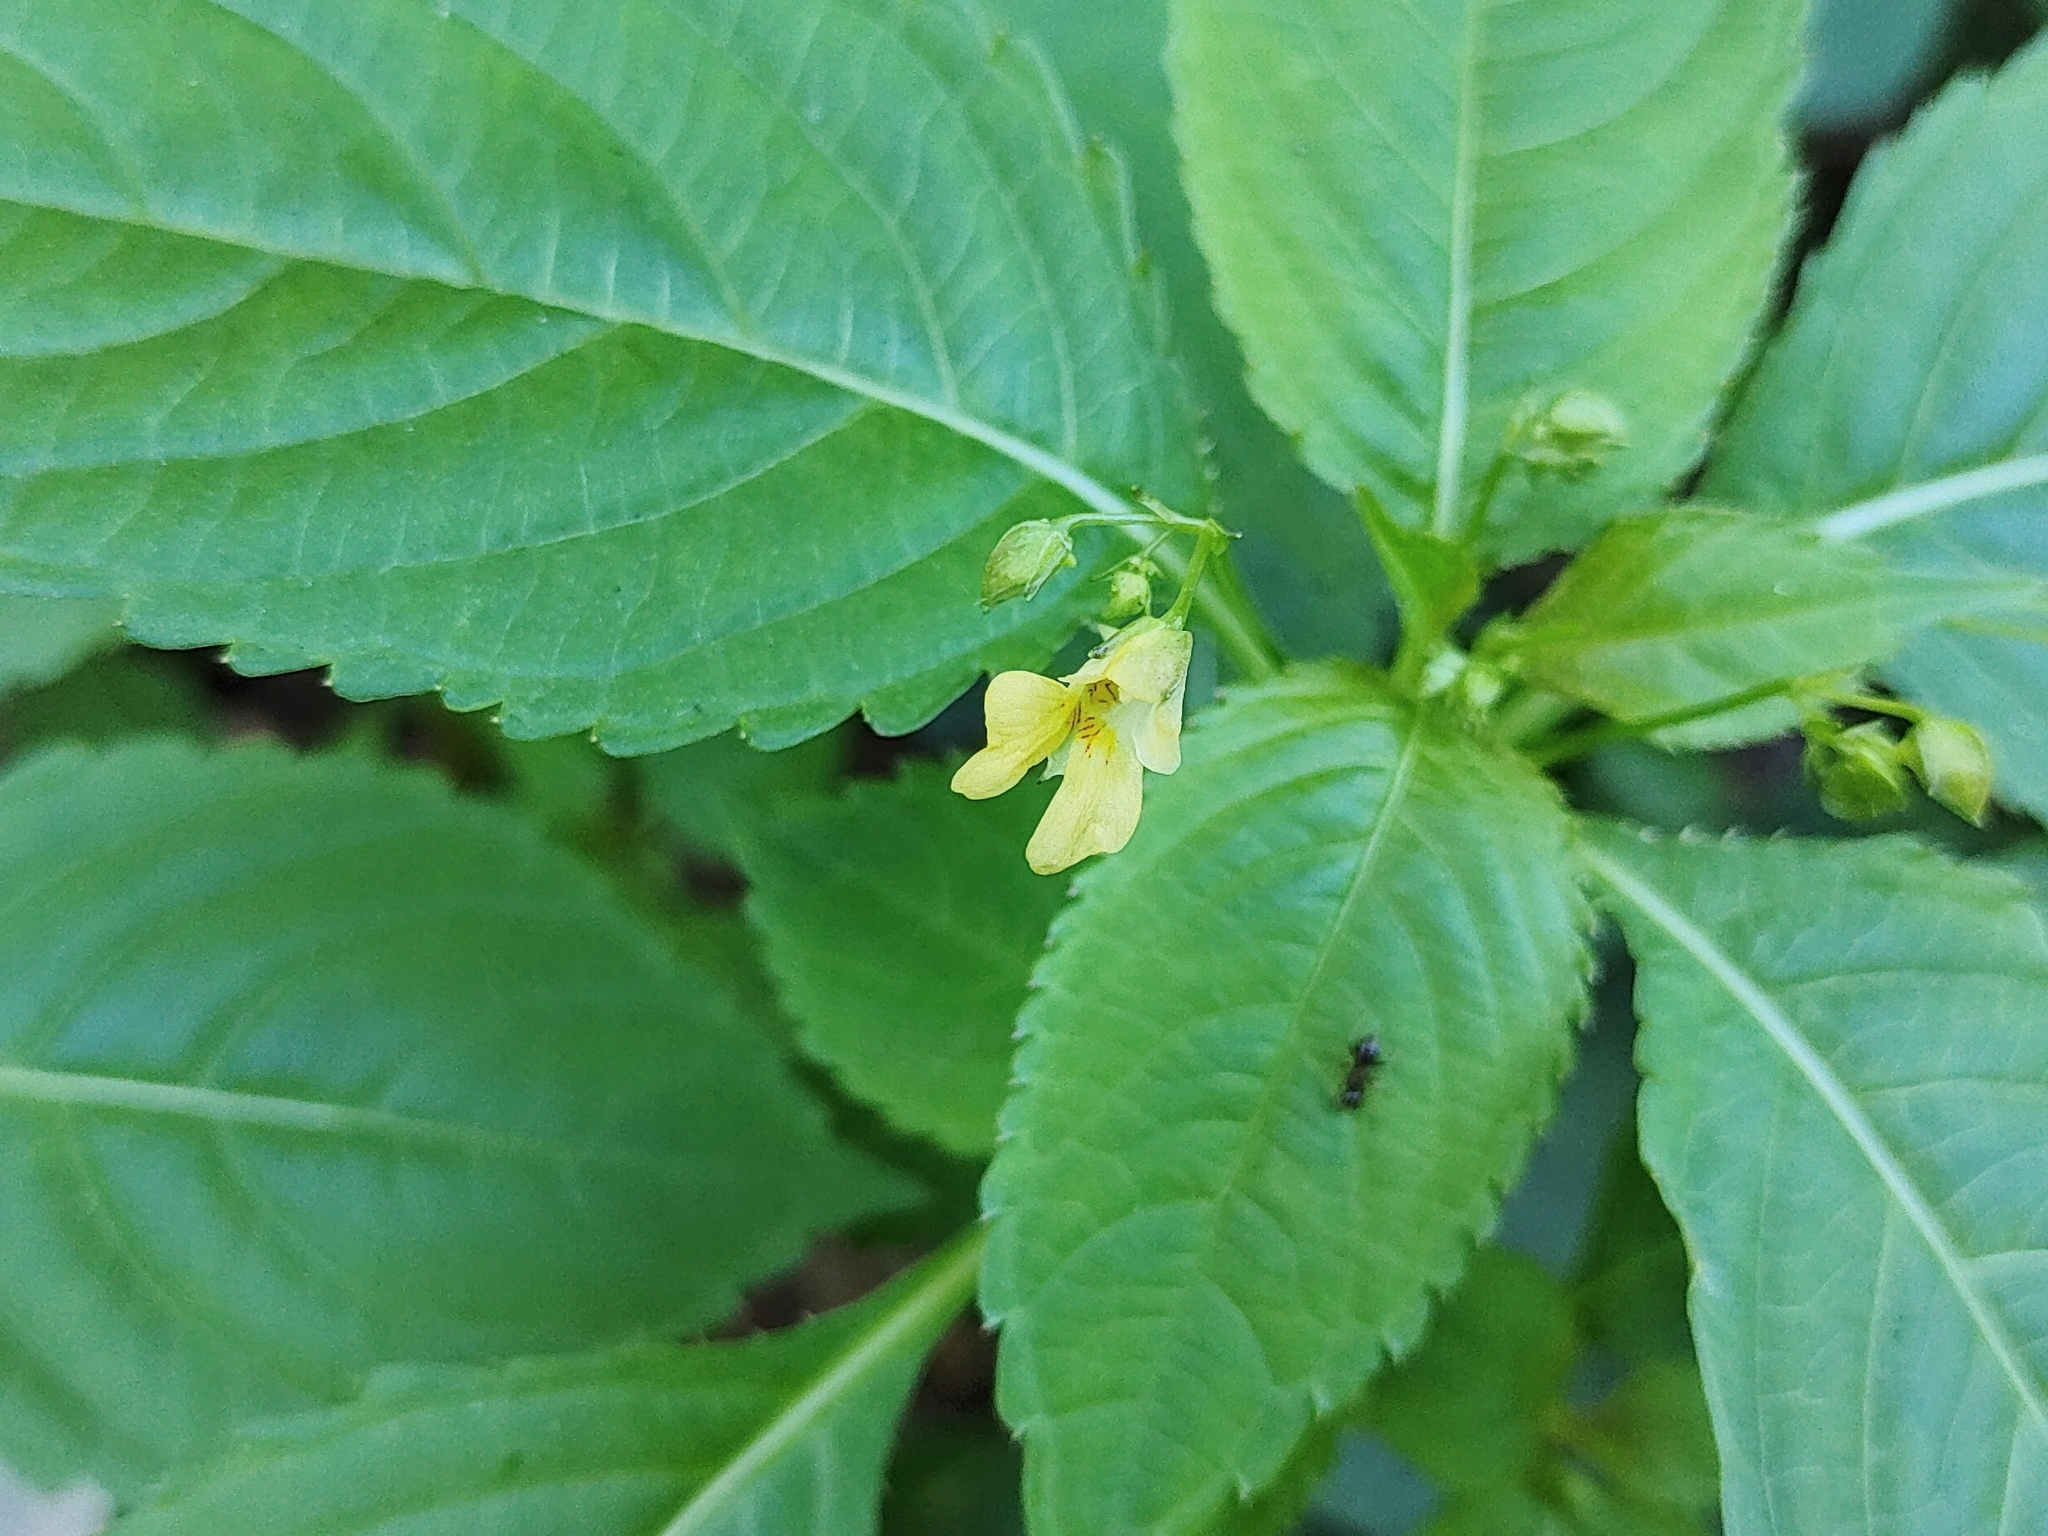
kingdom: Plantae
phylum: Tracheophyta
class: Magnoliopsida
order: Ericales
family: Balsaminaceae
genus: Impatiens
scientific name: Impatiens parviflora
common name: Small balsam
